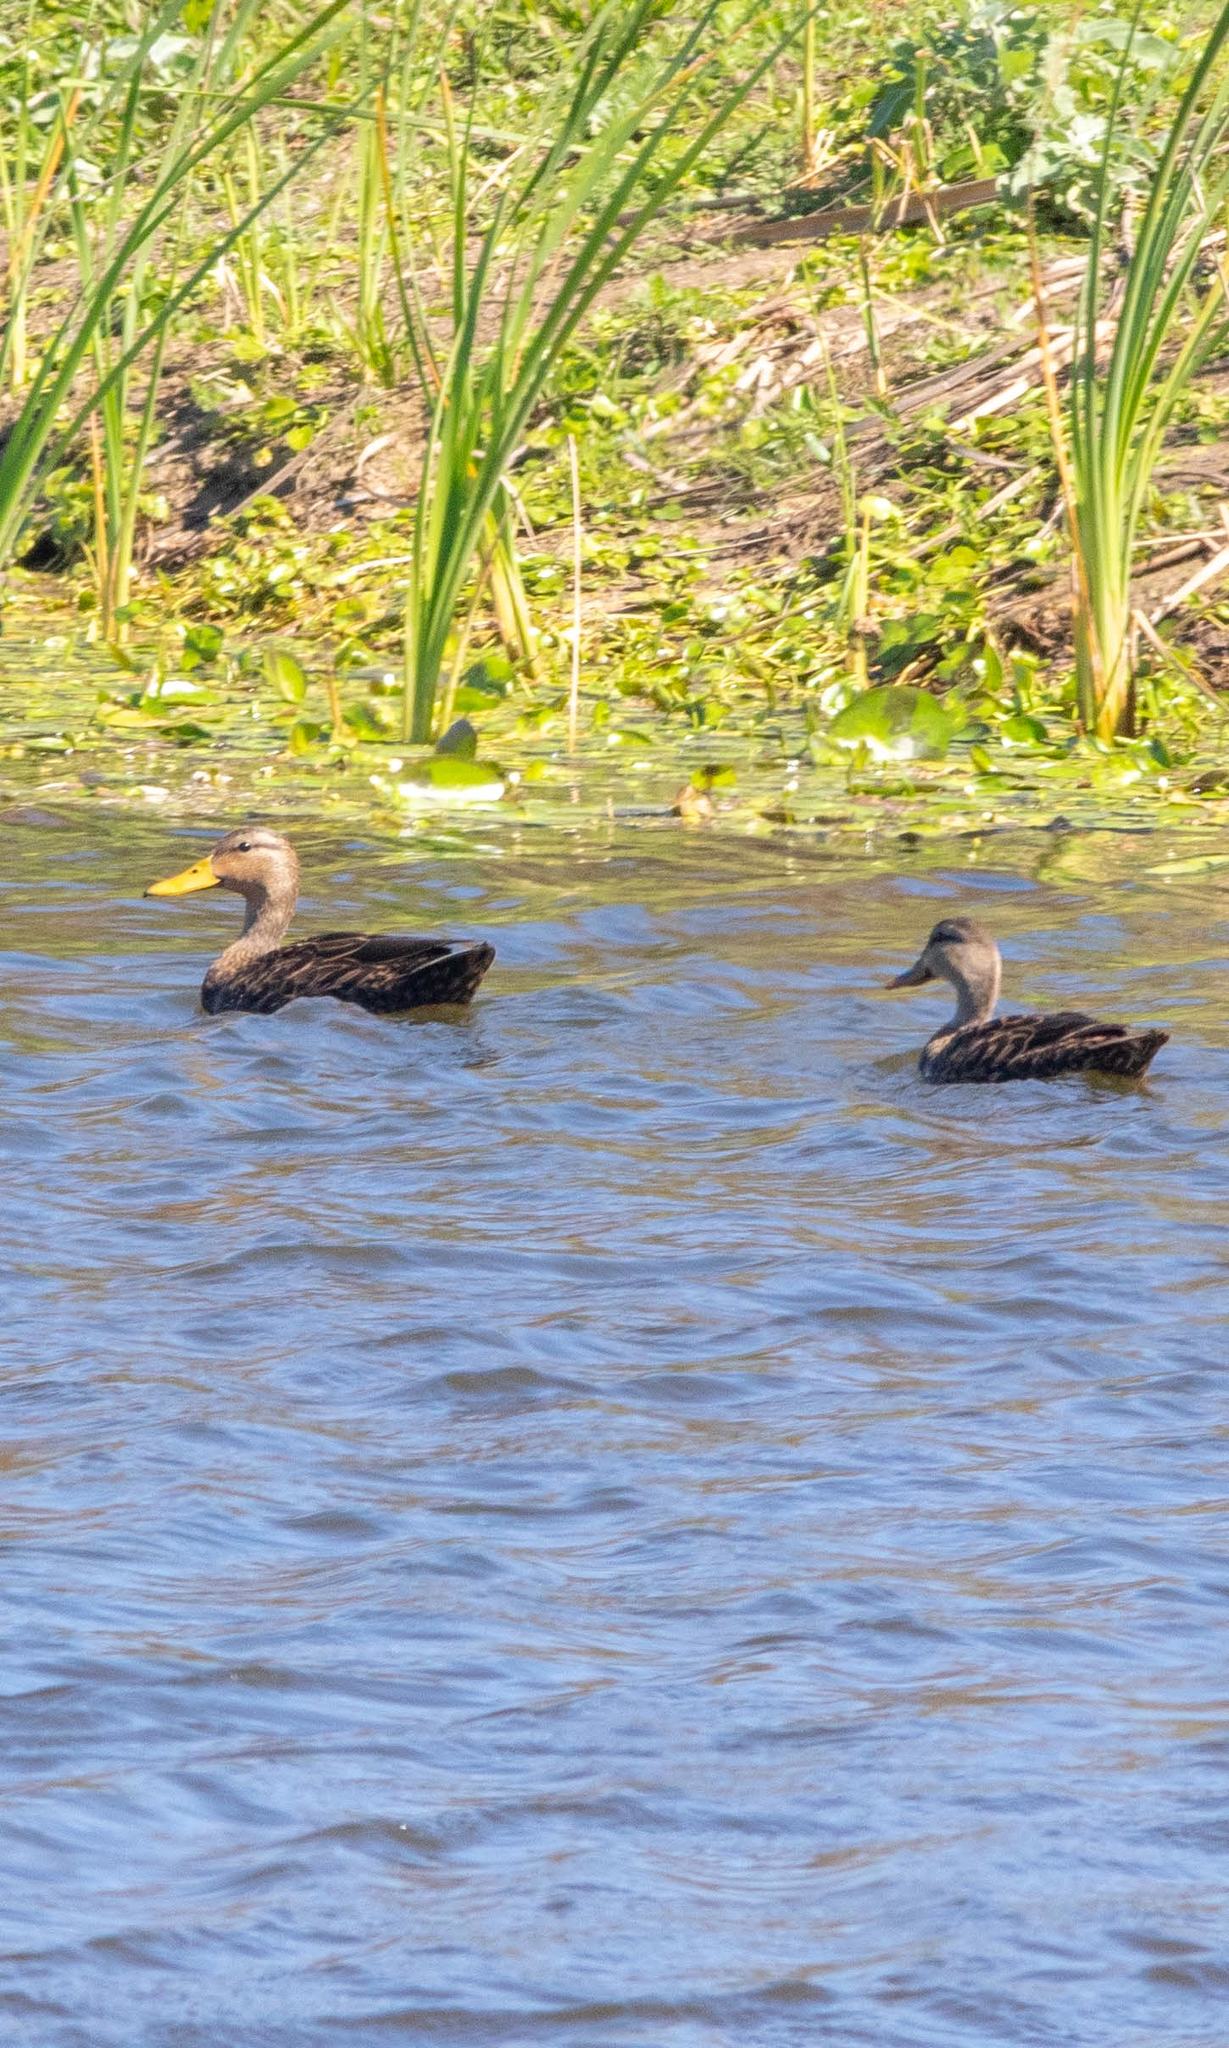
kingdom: Animalia
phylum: Chordata
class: Aves
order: Anseriformes
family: Anatidae
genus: Anas
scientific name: Anas fulvigula
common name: Mottled duck
